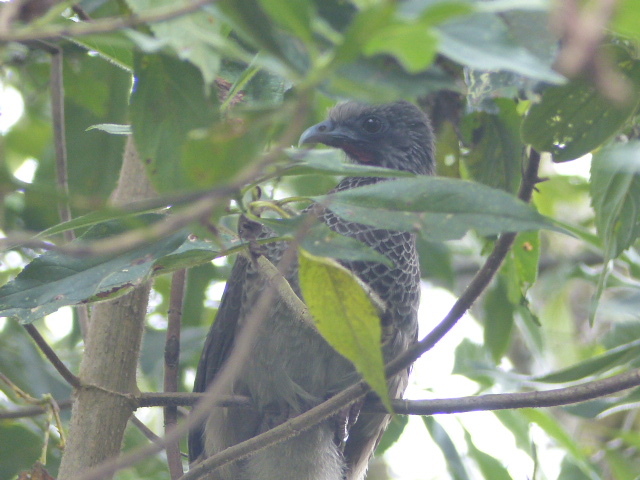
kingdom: Animalia
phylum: Chordata
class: Aves
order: Galliformes
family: Cracidae
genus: Ortalis
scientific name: Ortalis columbiana
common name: Colombian chachalaca
